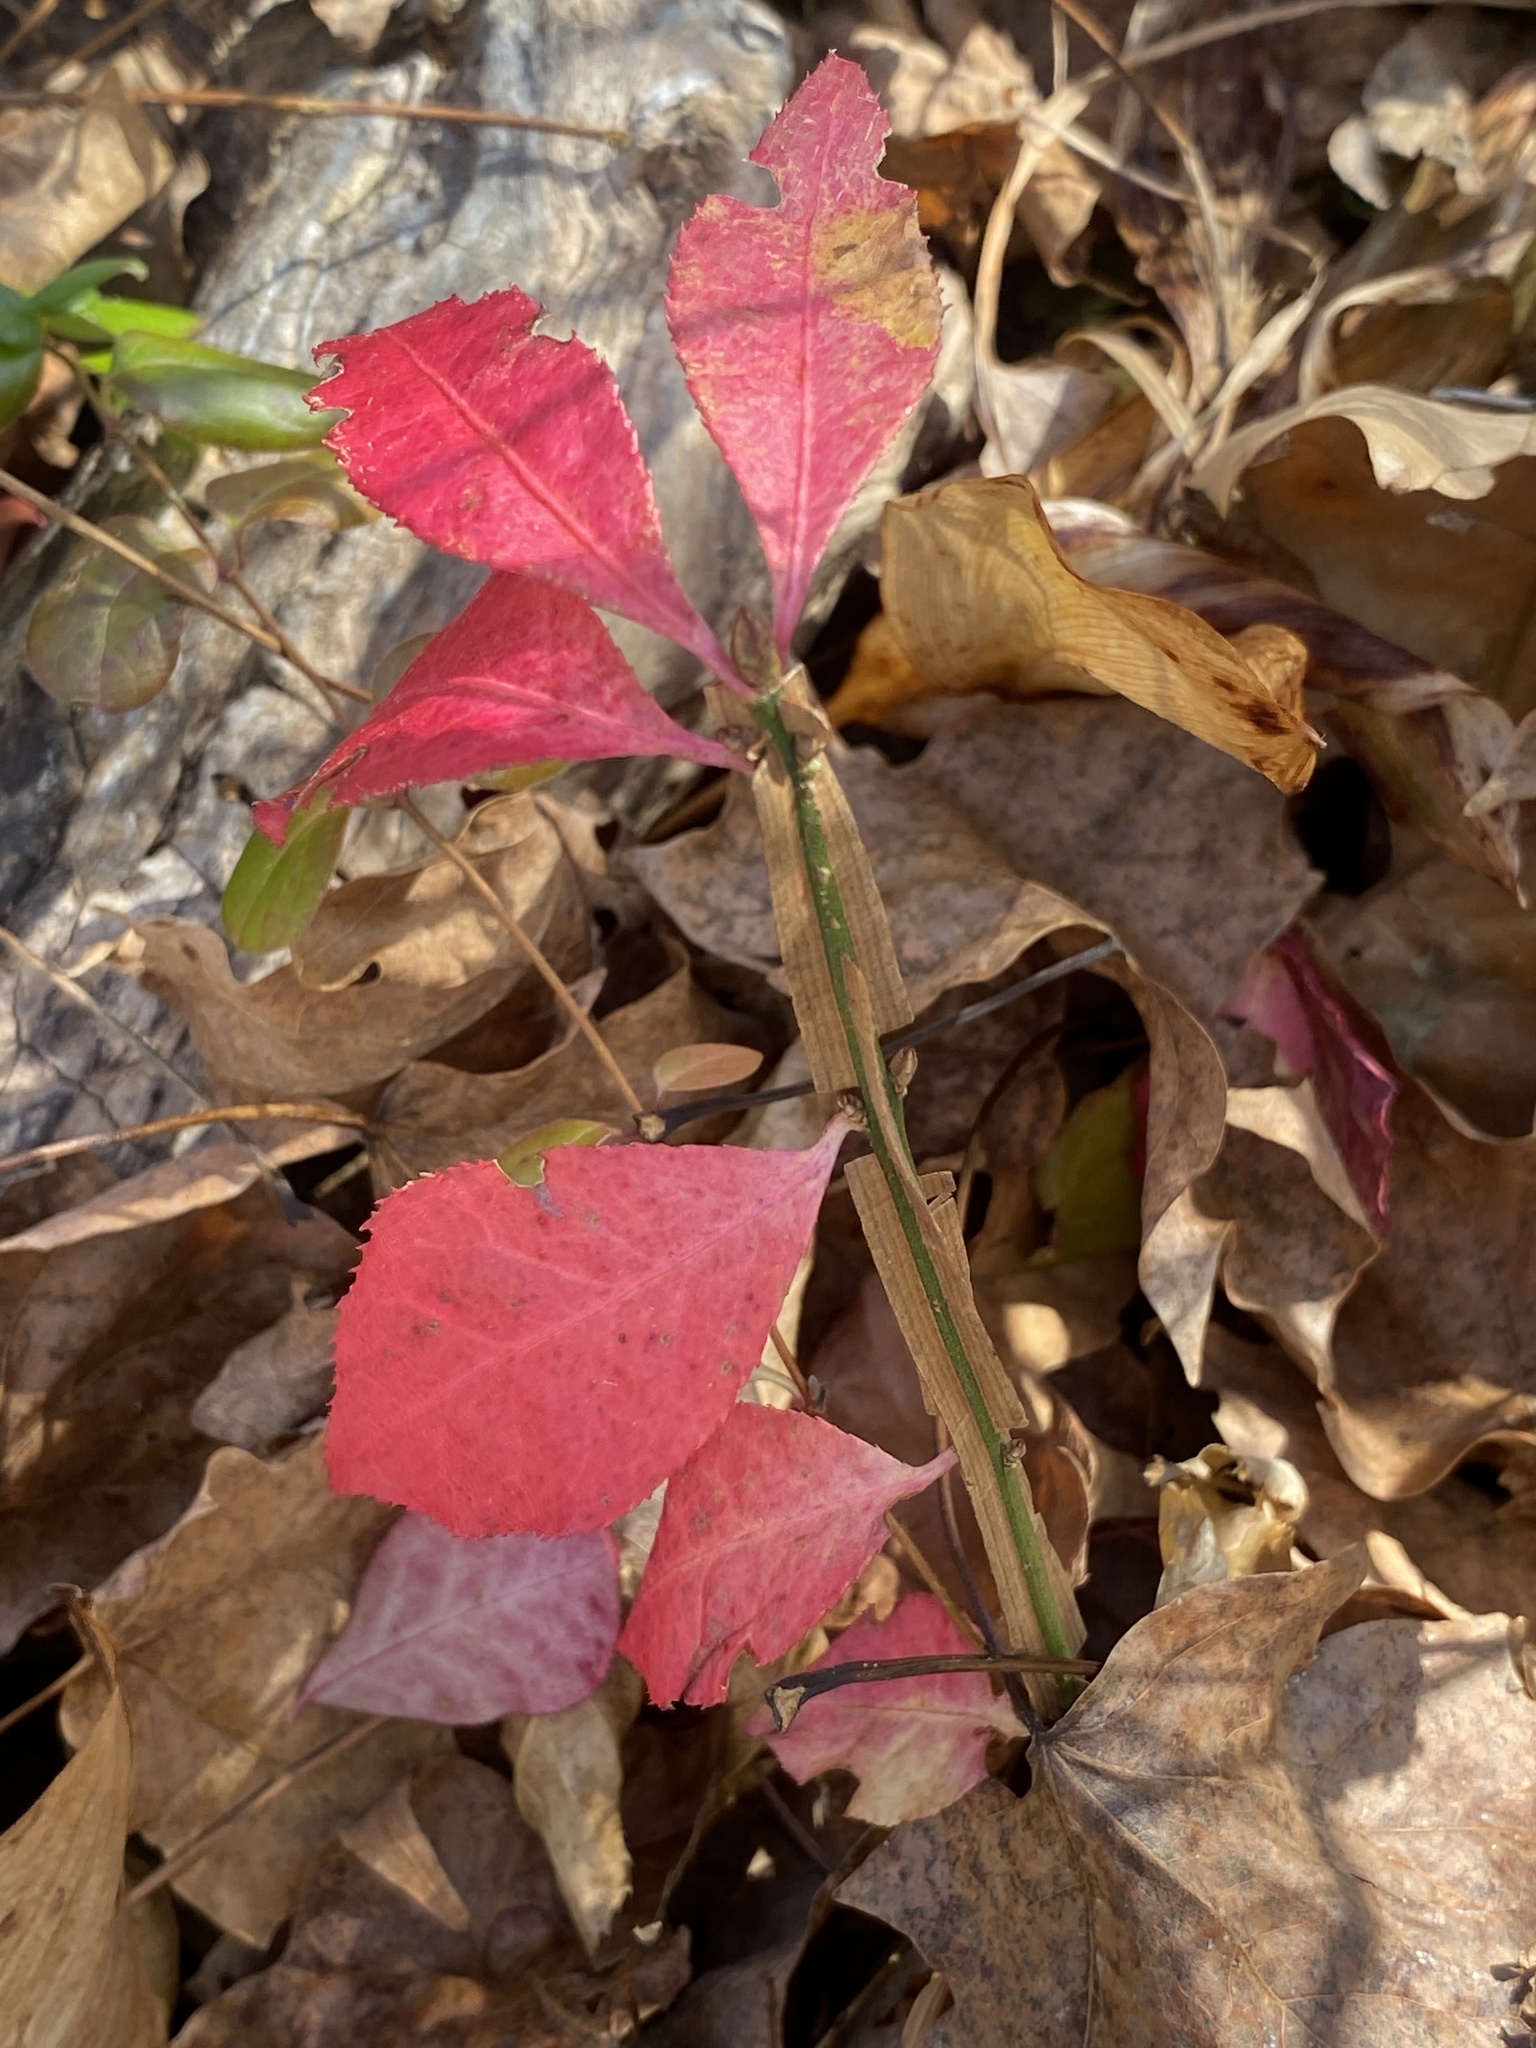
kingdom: Plantae
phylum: Tracheophyta
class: Magnoliopsida
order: Celastrales
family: Celastraceae
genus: Euonymus
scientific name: Euonymus alatus
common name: Winged euonymus
